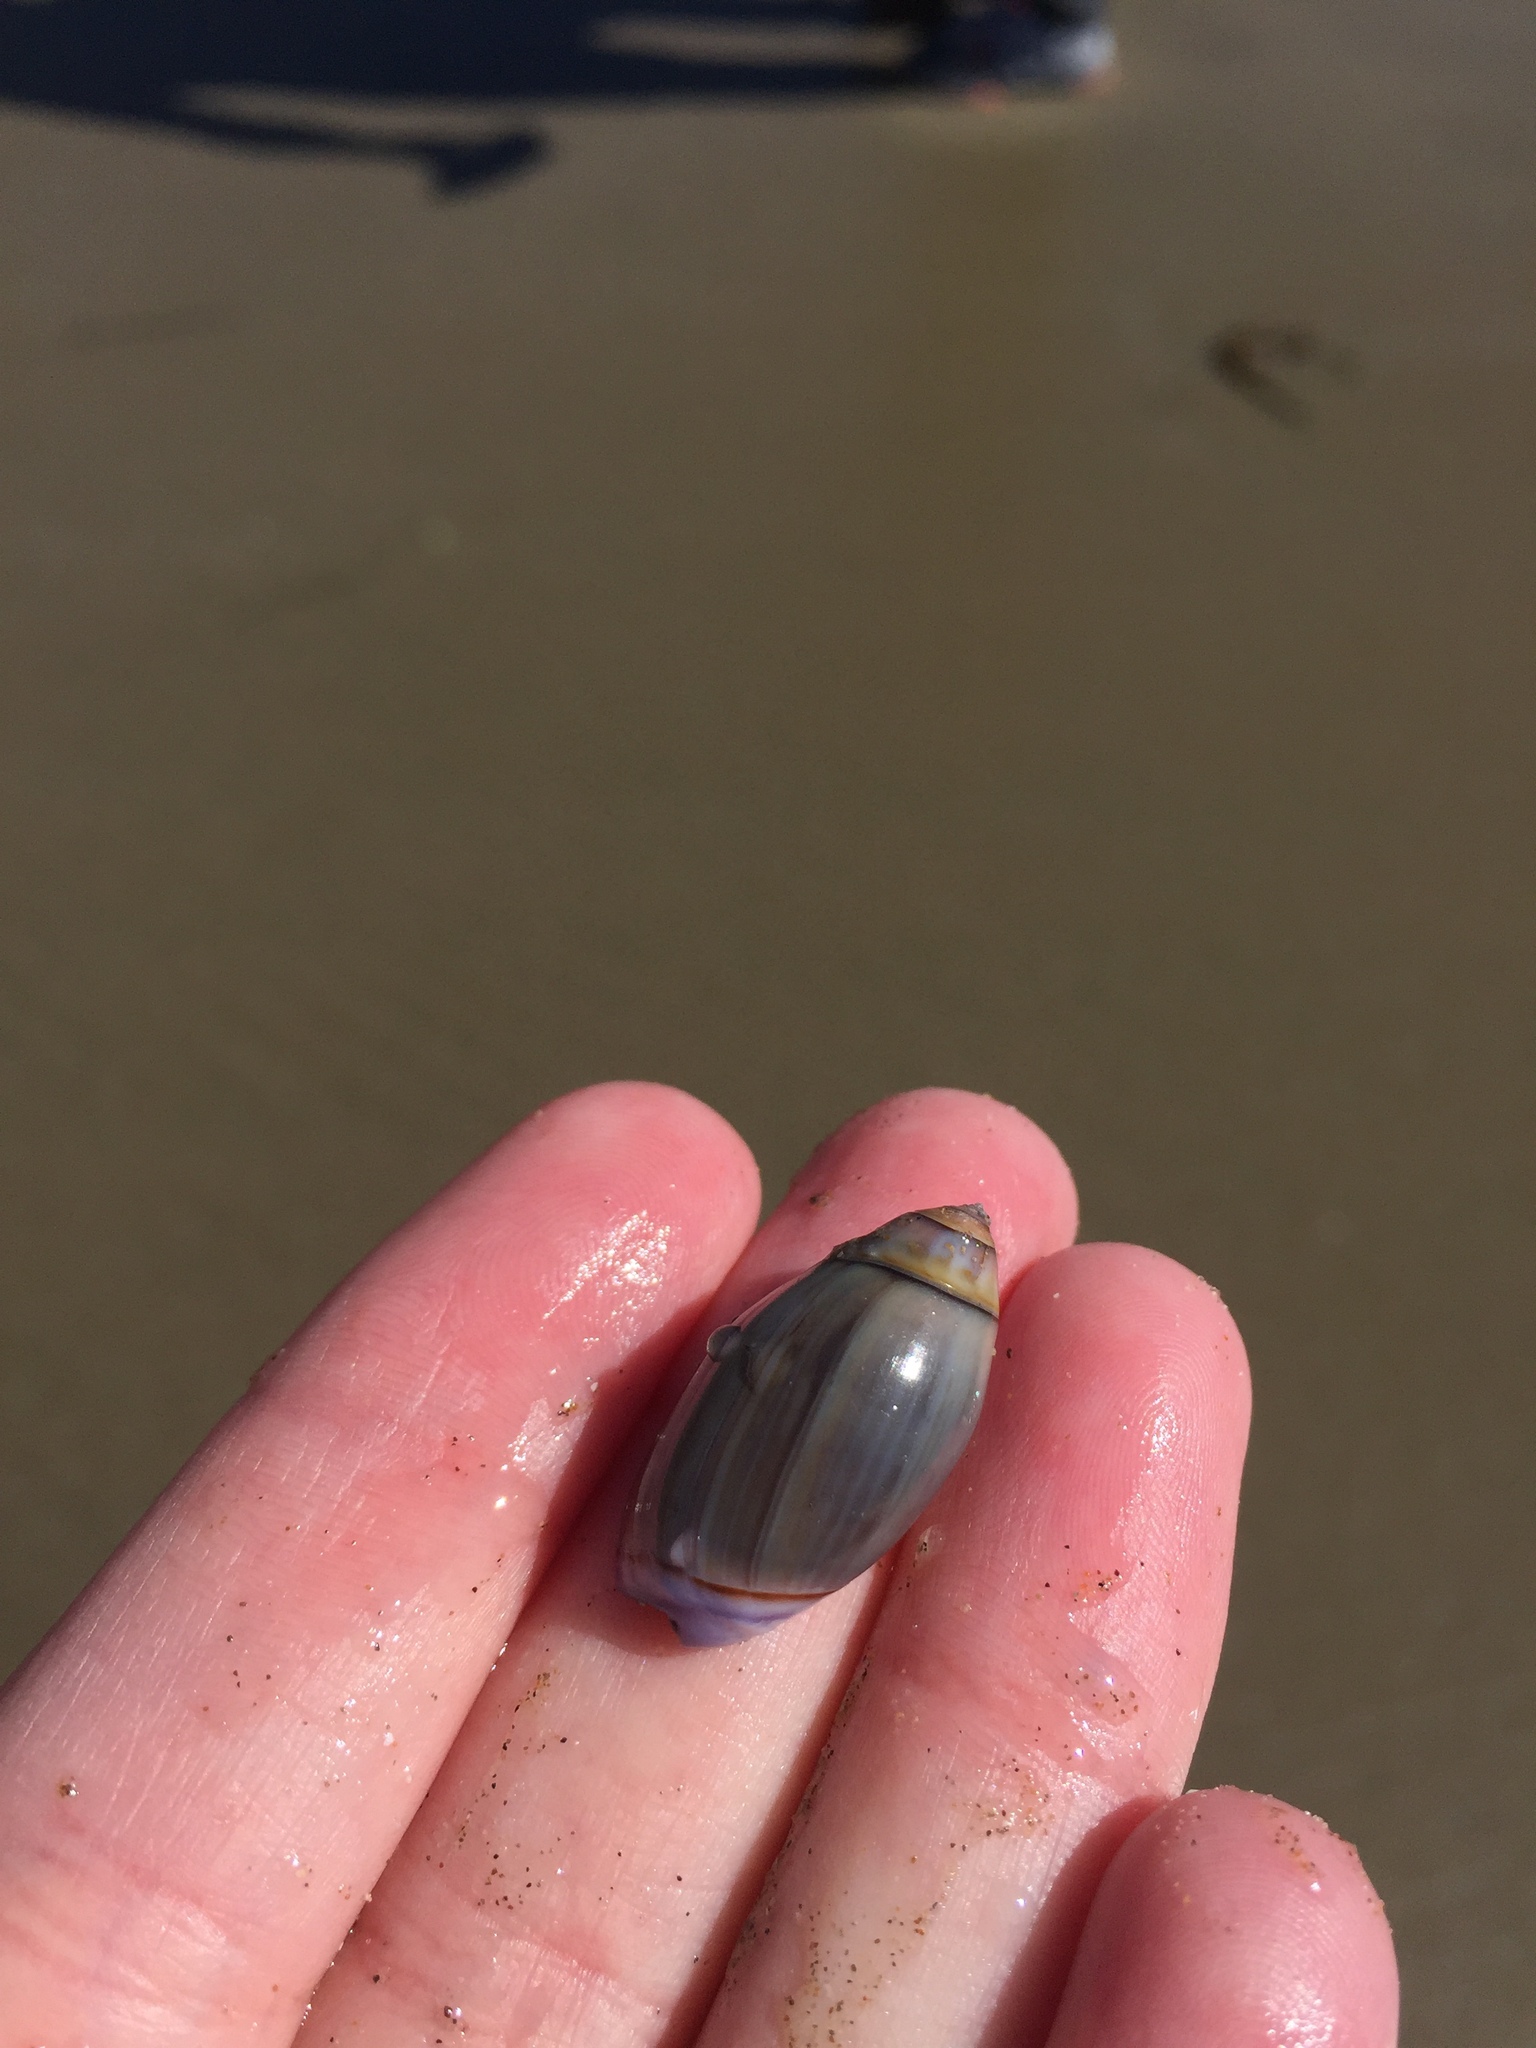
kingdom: Animalia
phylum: Mollusca
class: Gastropoda
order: Neogastropoda
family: Olividae
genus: Callianax
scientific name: Callianax biplicata
